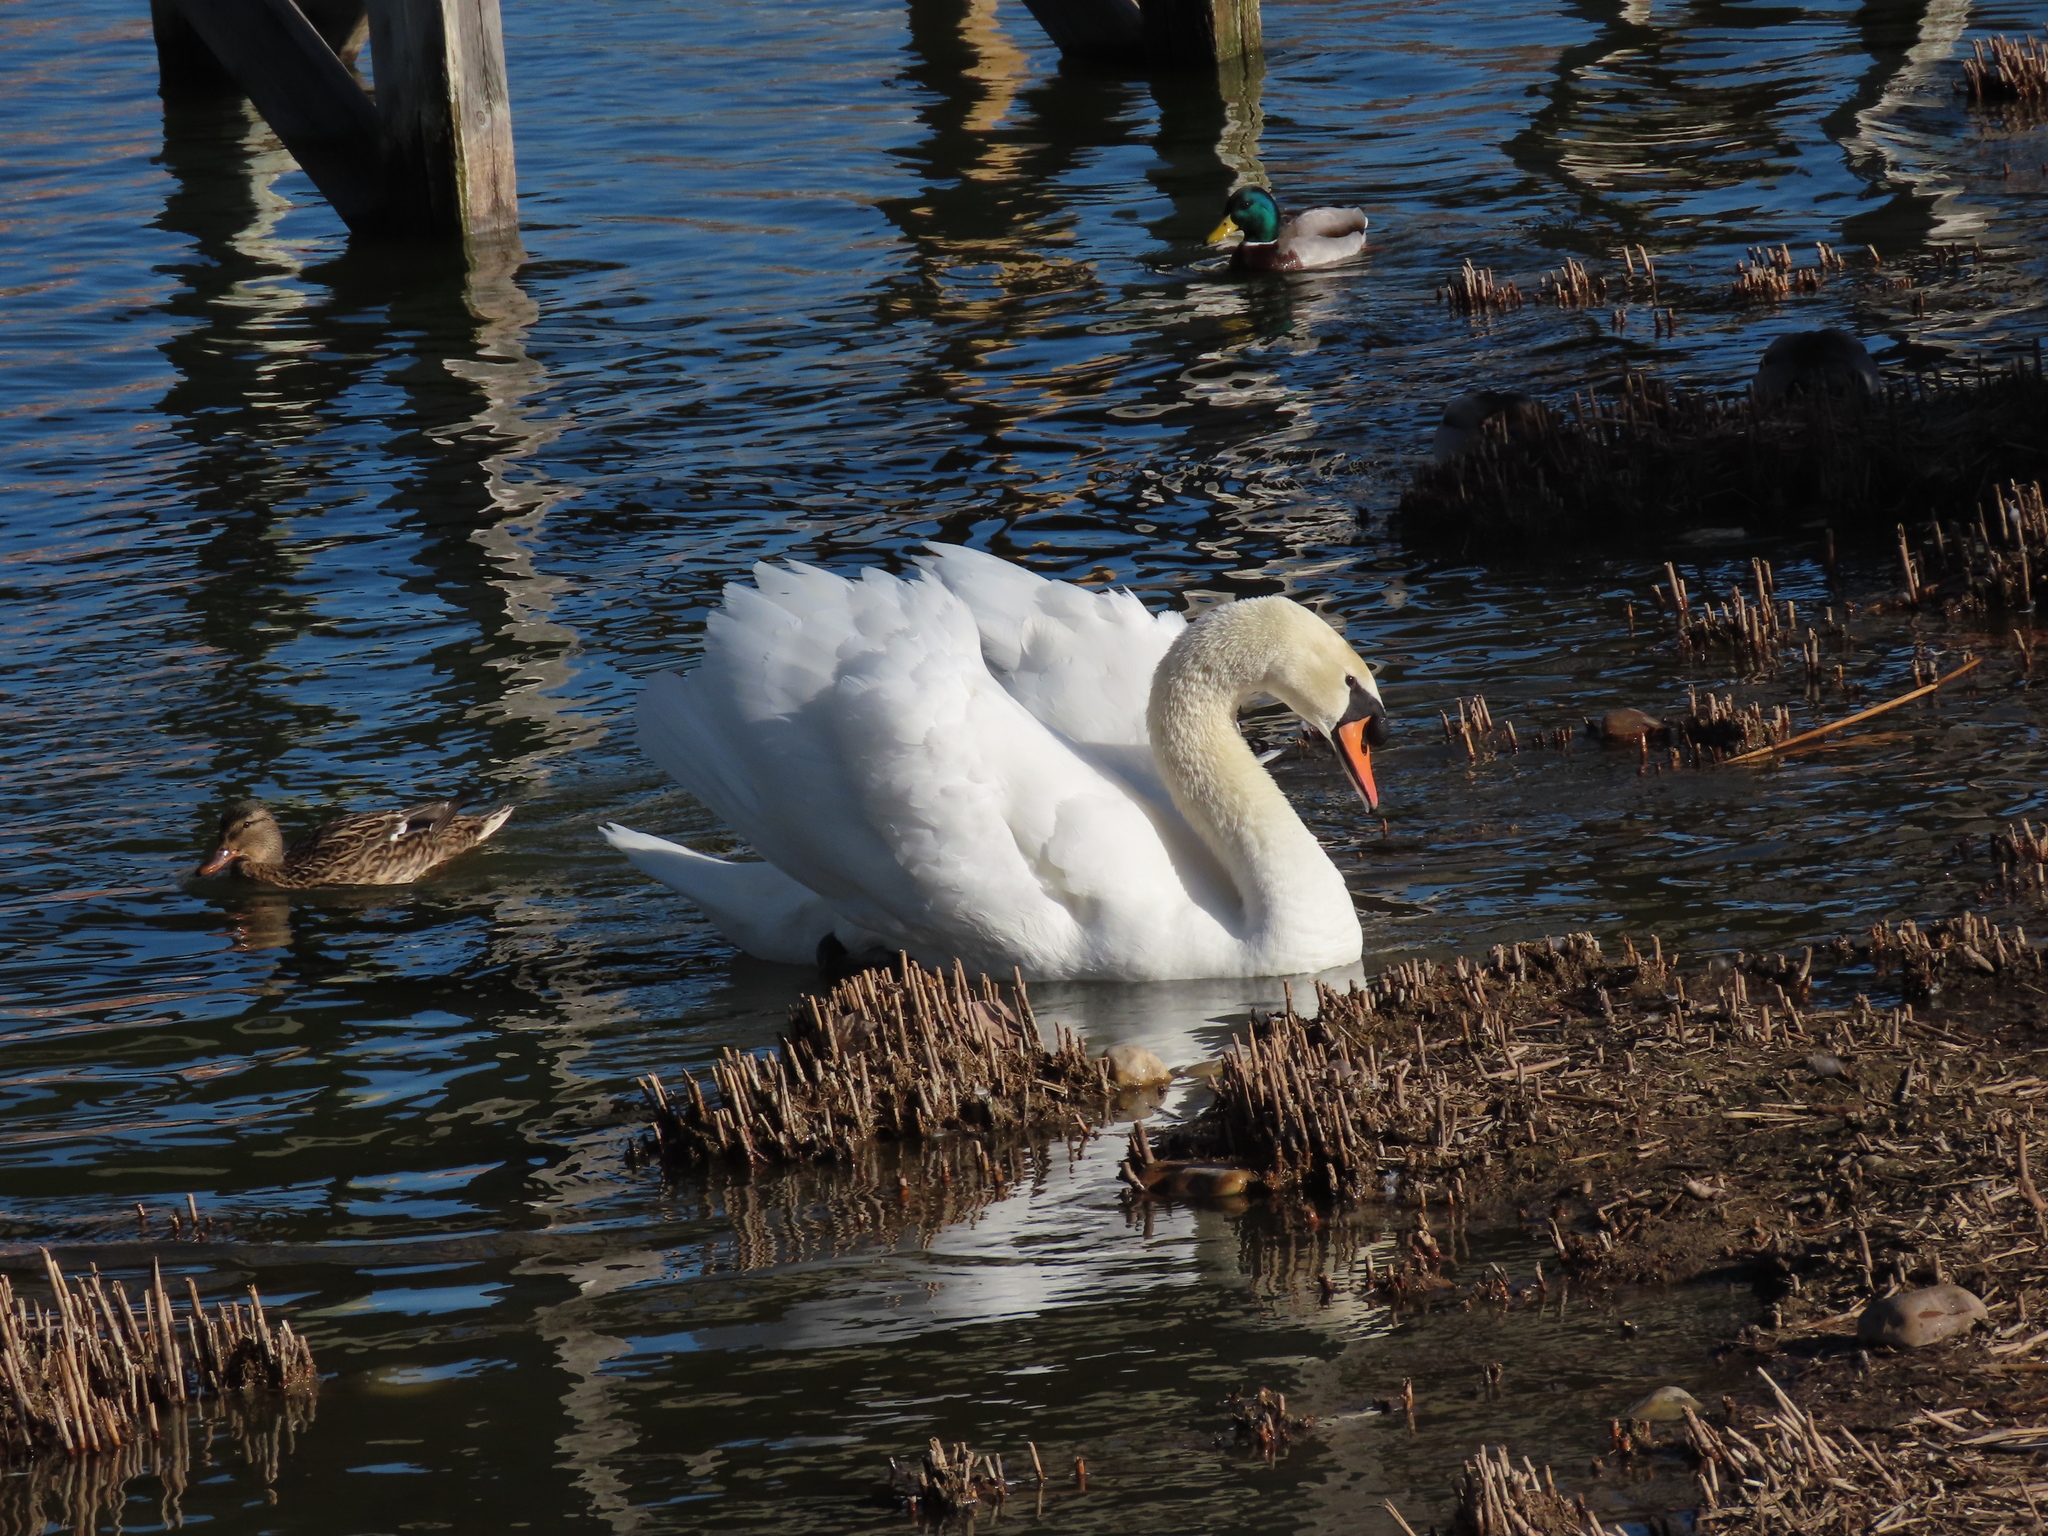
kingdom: Animalia
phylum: Chordata
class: Aves
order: Anseriformes
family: Anatidae
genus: Cygnus
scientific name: Cygnus olor
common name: Mute swan
